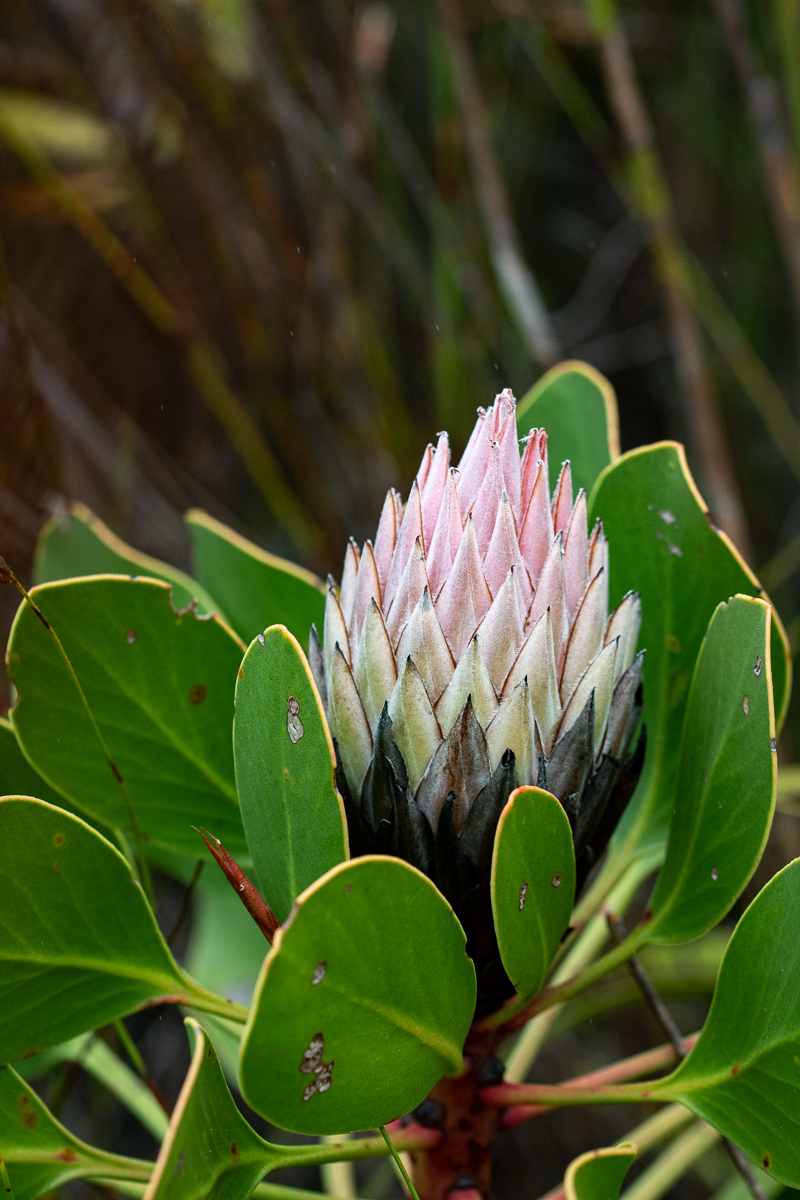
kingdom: Plantae
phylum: Tracheophyta
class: Magnoliopsida
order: Proteales
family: Proteaceae
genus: Protea
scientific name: Protea cynaroides
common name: King protea
